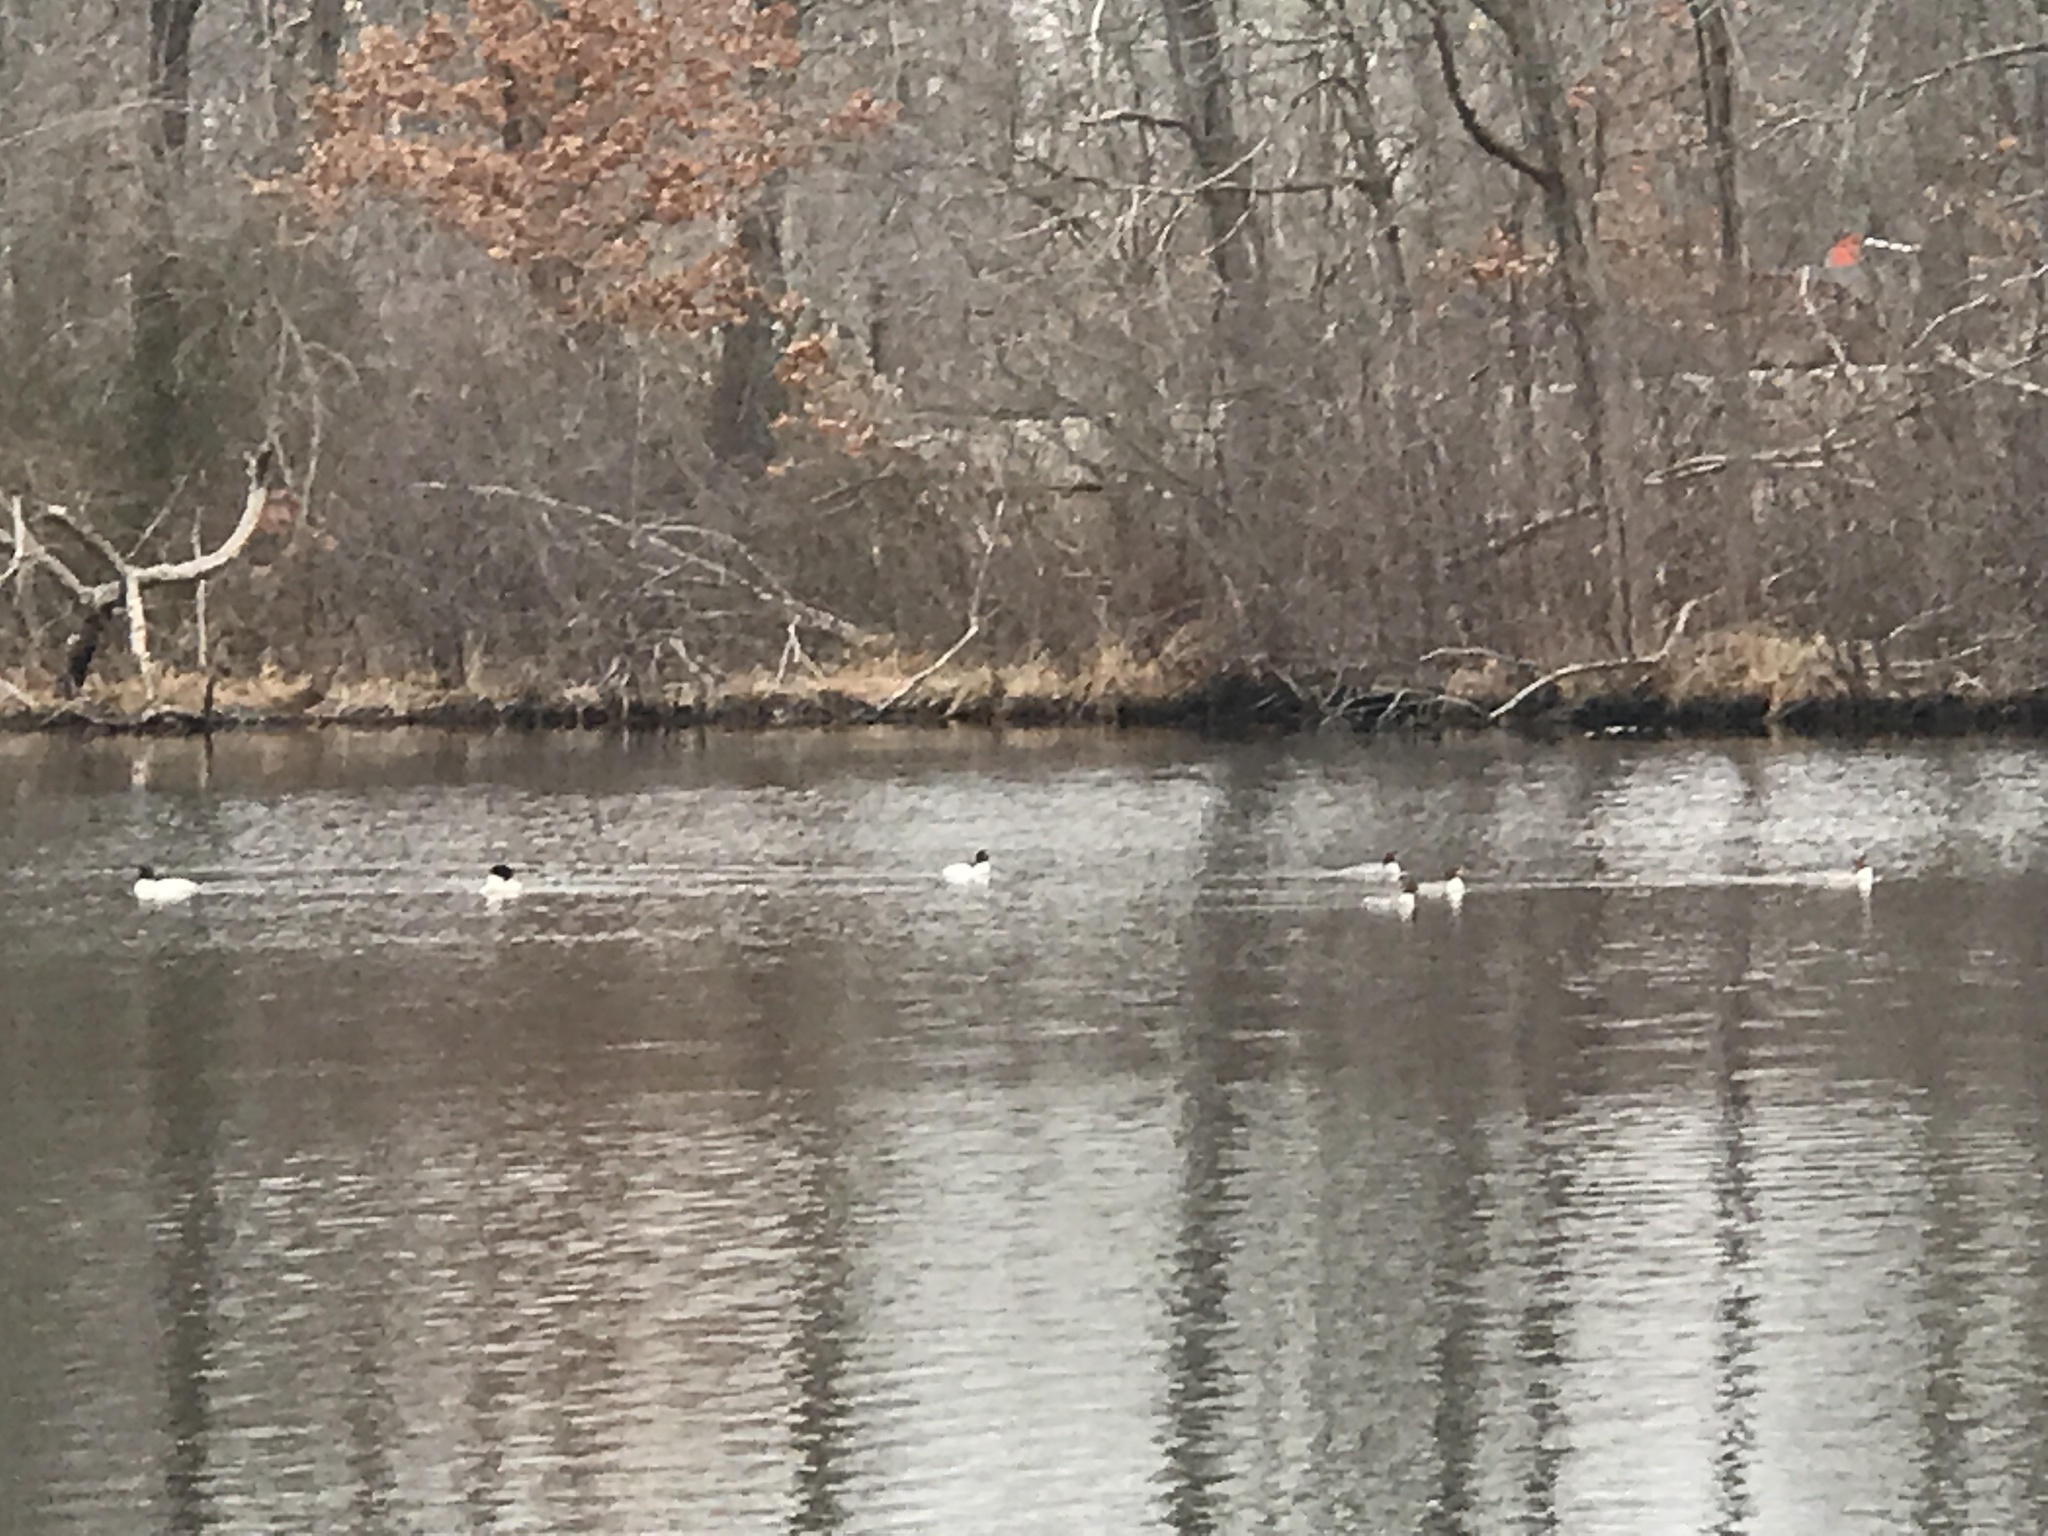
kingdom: Animalia
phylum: Chordata
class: Aves
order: Anseriformes
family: Anatidae
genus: Mergus
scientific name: Mergus merganser
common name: Common merganser
